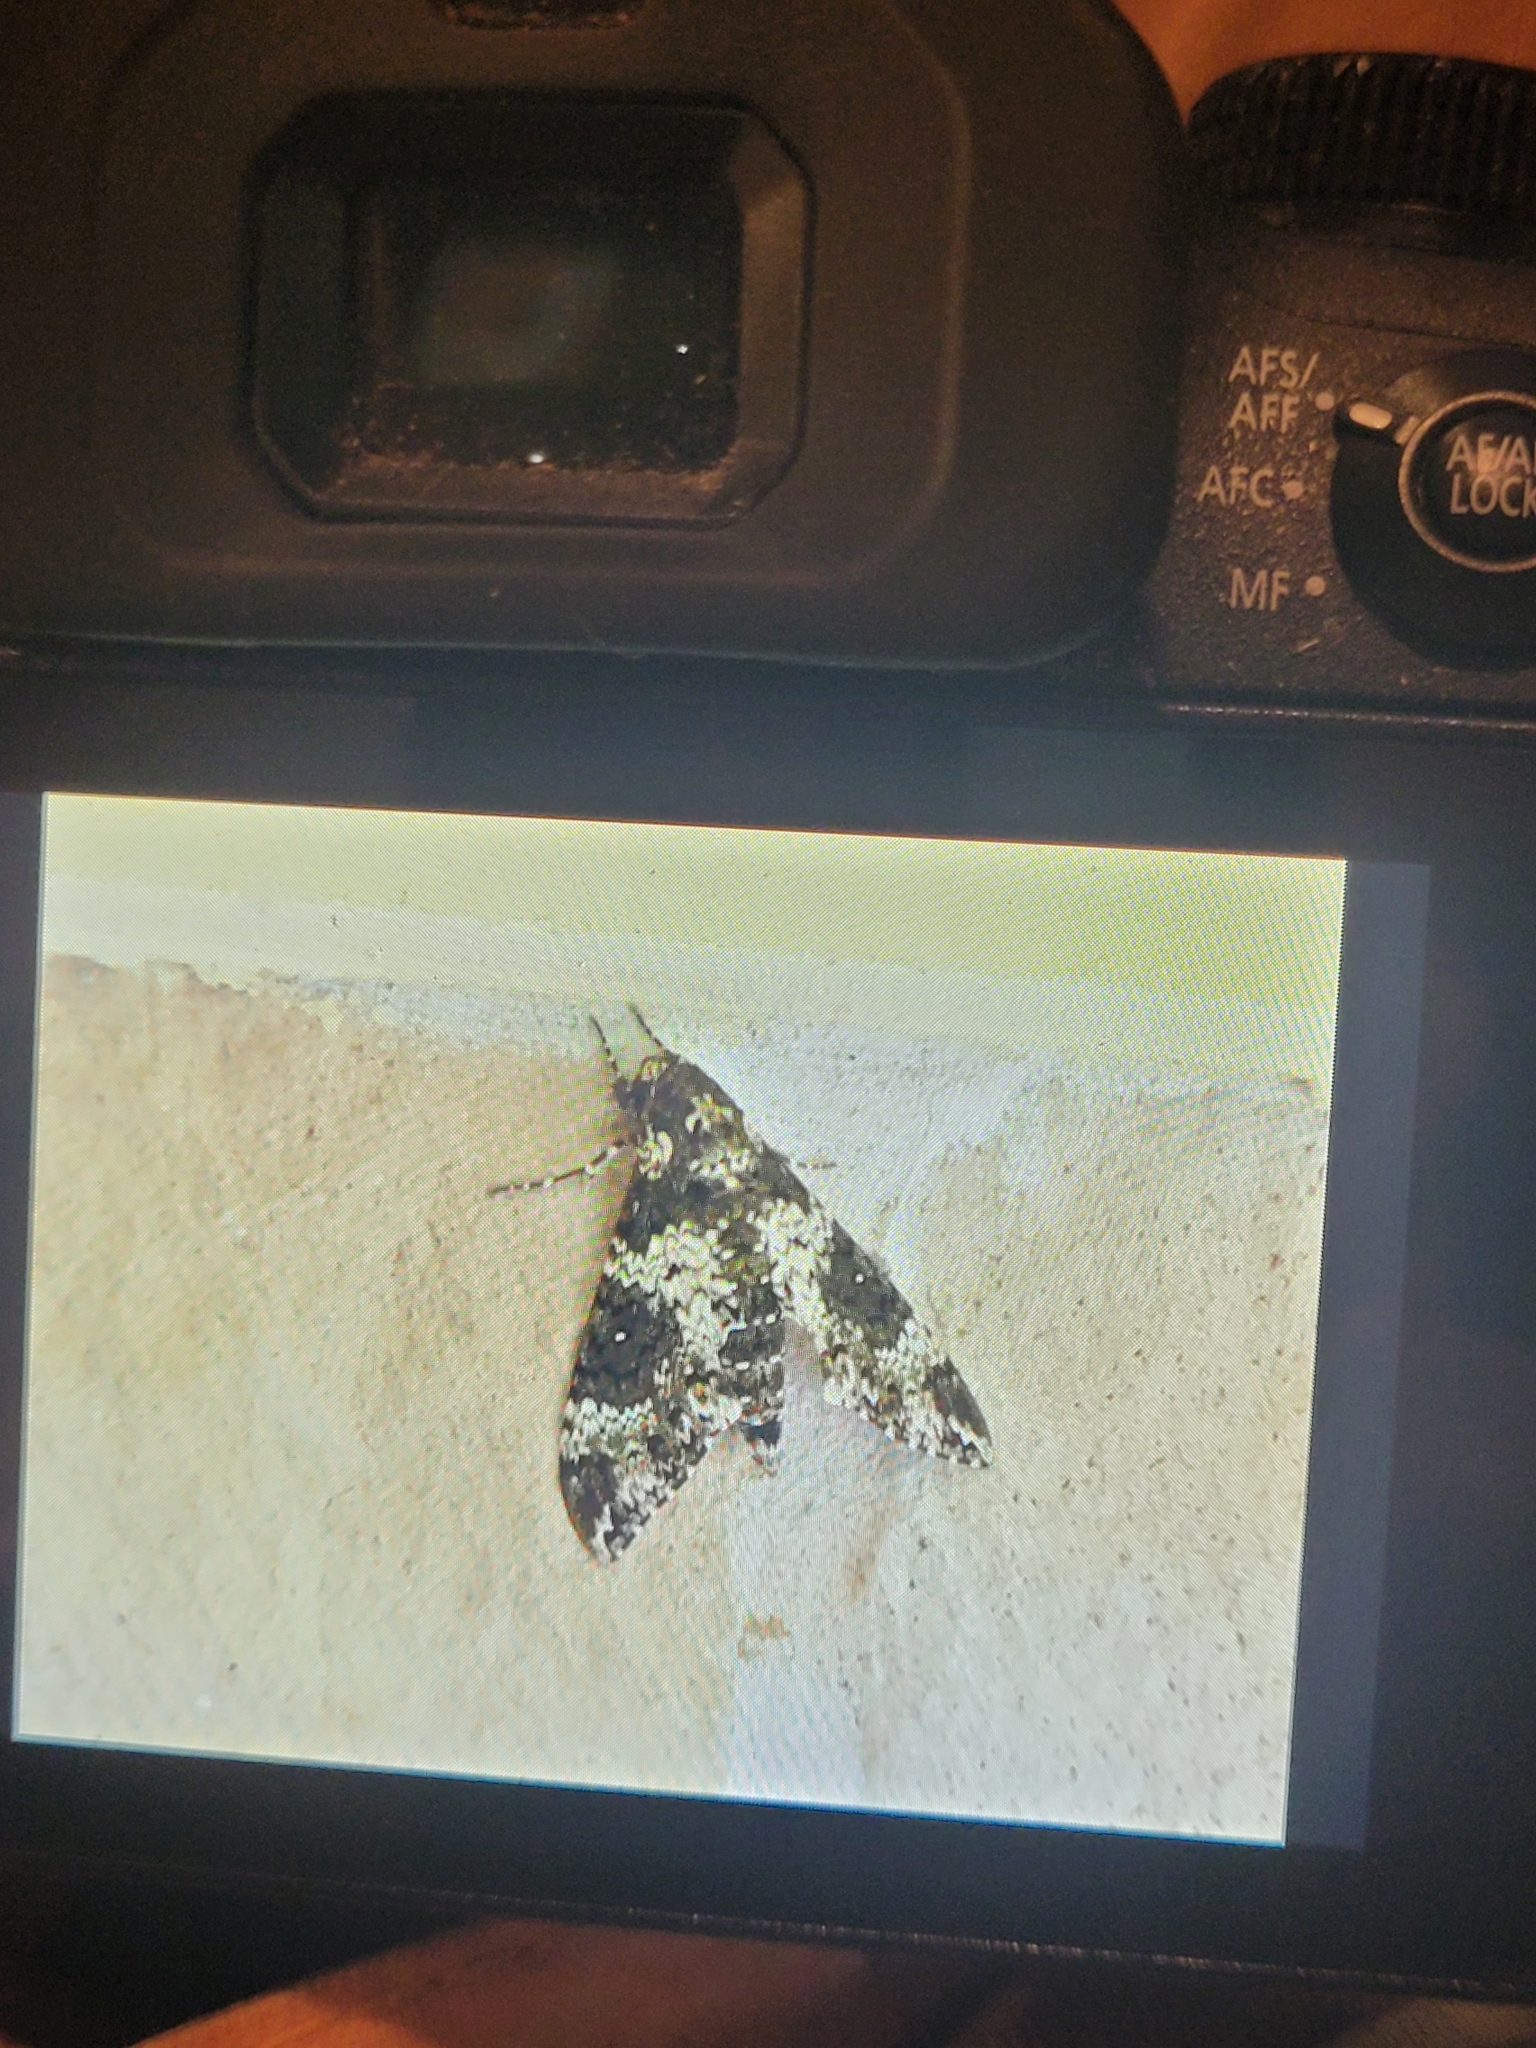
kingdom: Animalia
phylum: Arthropoda
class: Insecta
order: Lepidoptera
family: Sphingidae
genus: Manduca
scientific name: Manduca rustica
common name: Rustic sphinx
